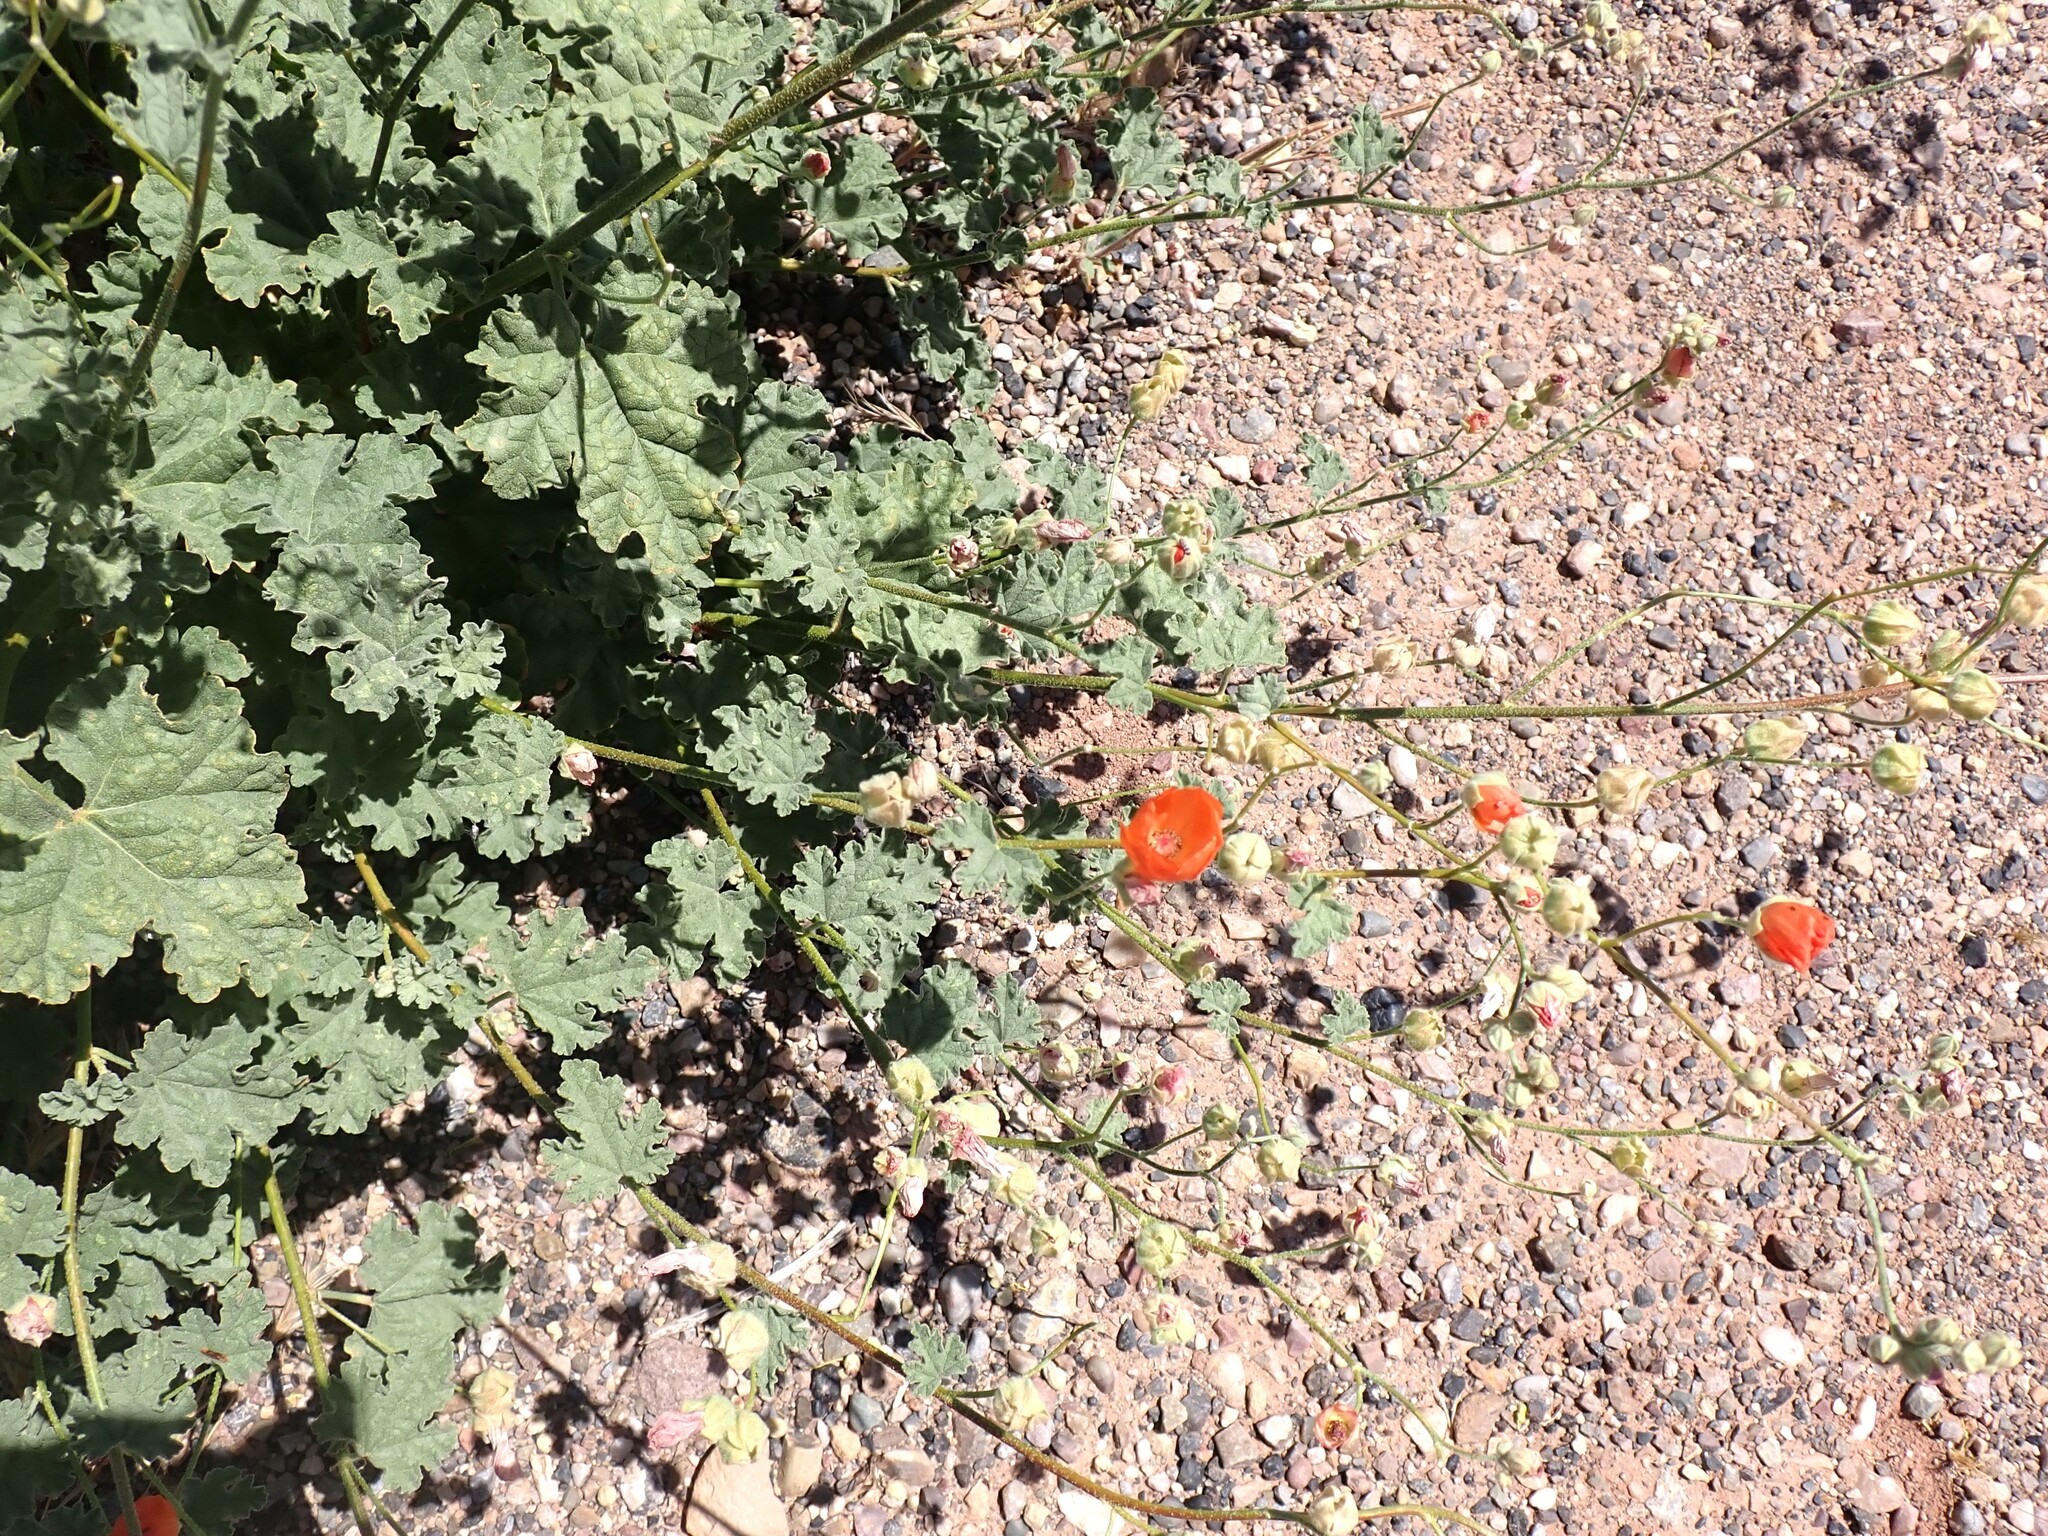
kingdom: Plantae
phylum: Tracheophyta
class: Magnoliopsida
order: Malvales
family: Malvaceae
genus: Sphaeralcea
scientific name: Sphaeralcea ambigua
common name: Apricot globe-mallow
